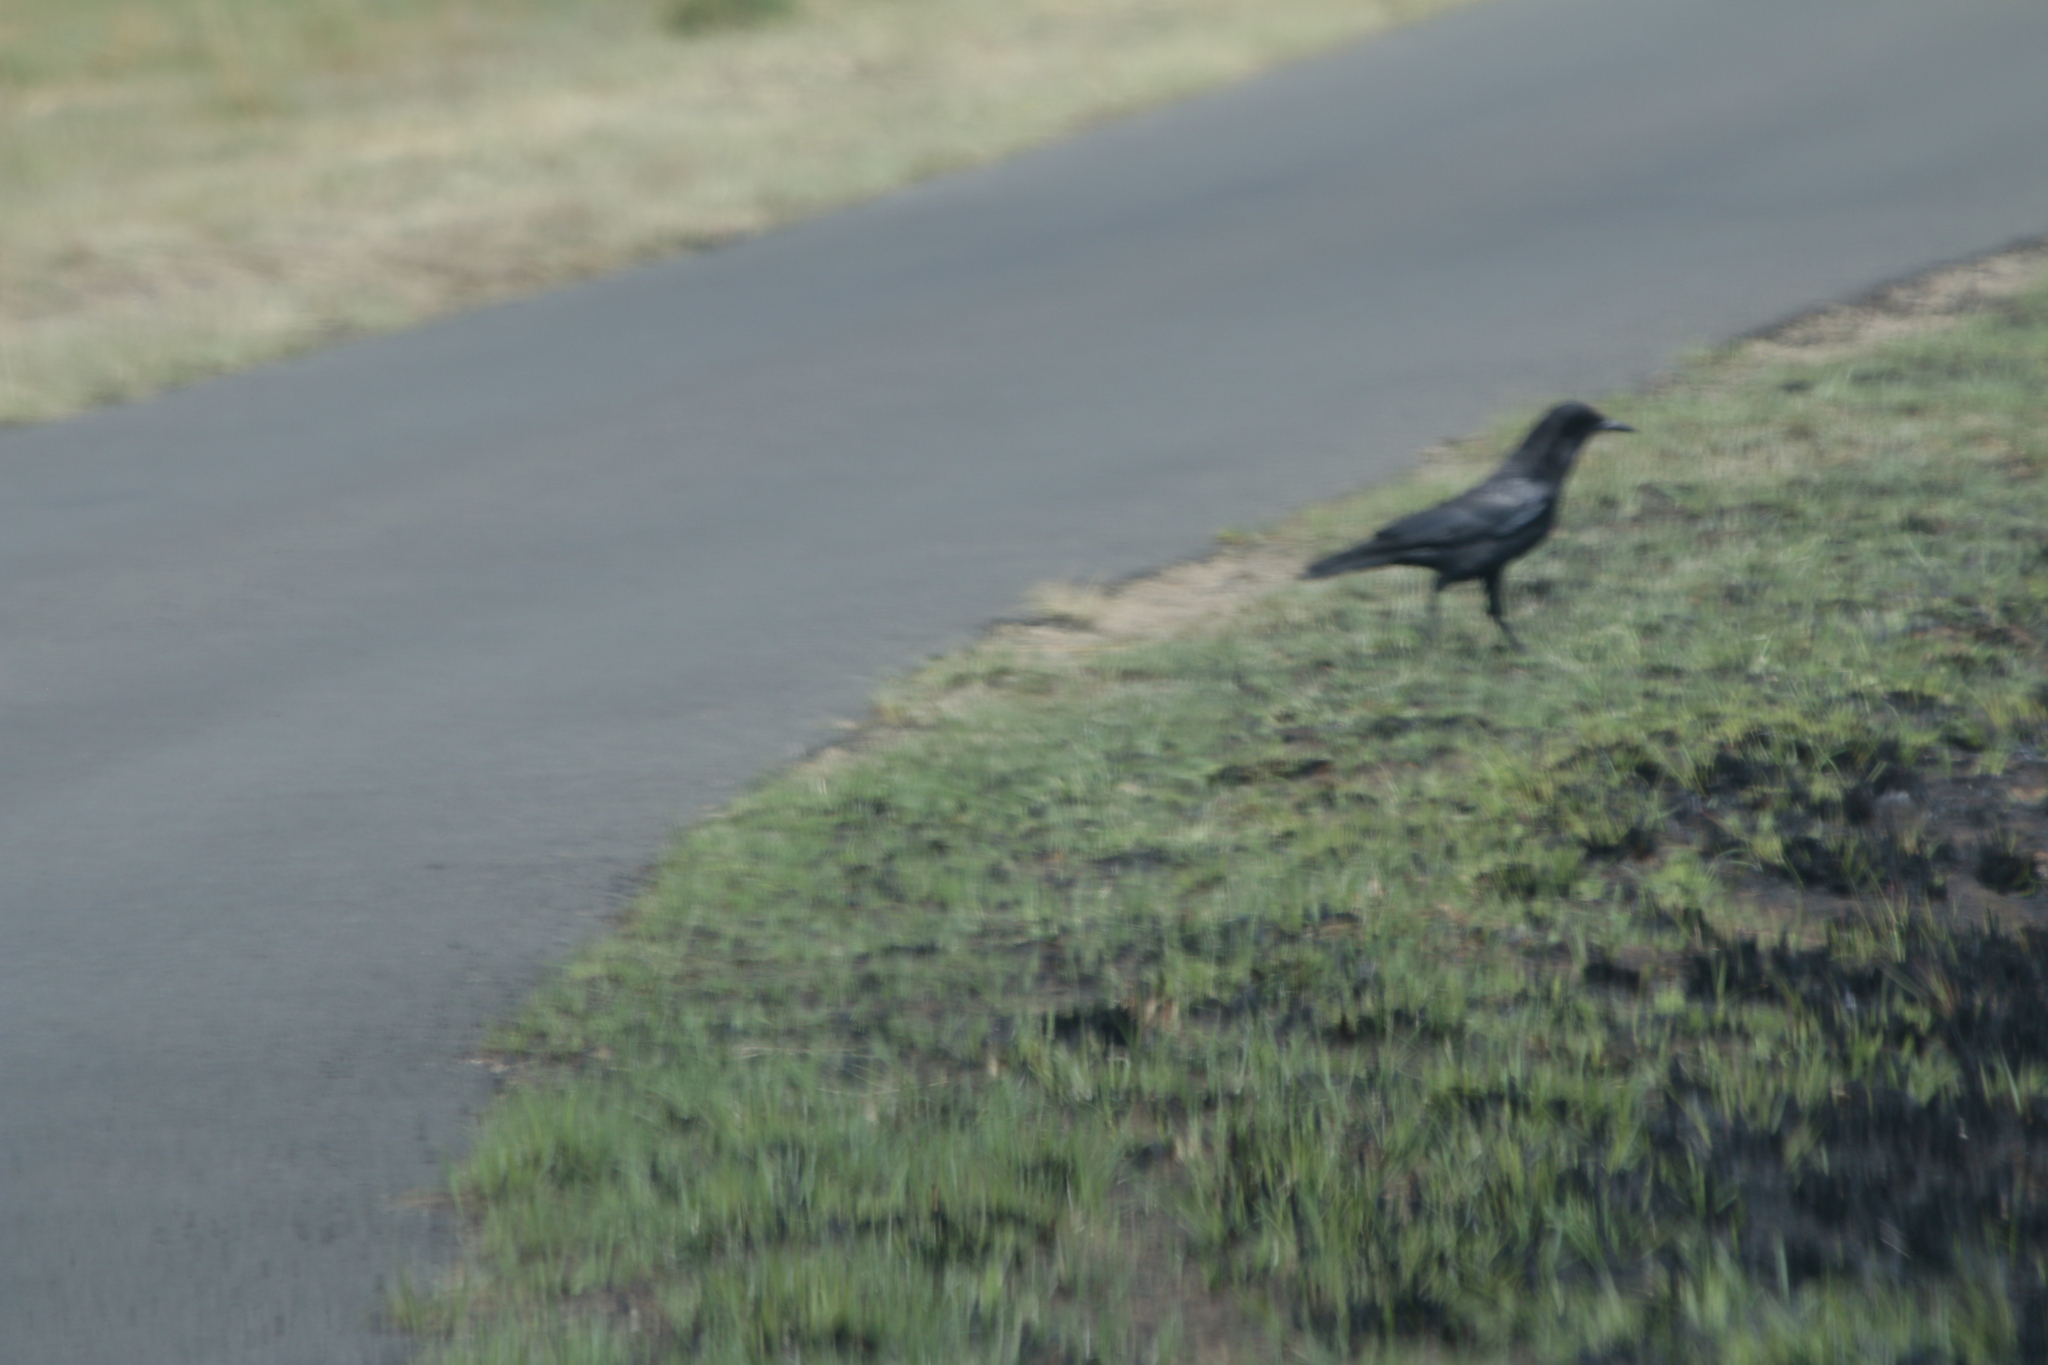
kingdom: Animalia
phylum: Chordata
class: Aves
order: Passeriformes
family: Corvidae
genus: Corvus
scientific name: Corvus capensis
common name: Cape crow
